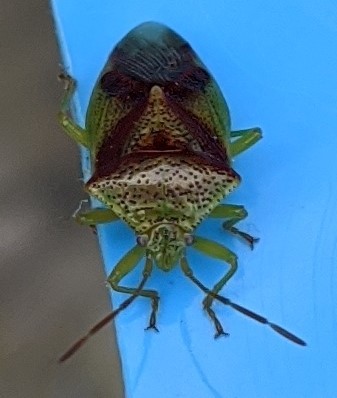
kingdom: Animalia
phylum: Arthropoda
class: Insecta
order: Hemiptera
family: Acanthosomatidae
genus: Elasmostethus
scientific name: Elasmostethus cruciatus
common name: Red-cross shield bug
